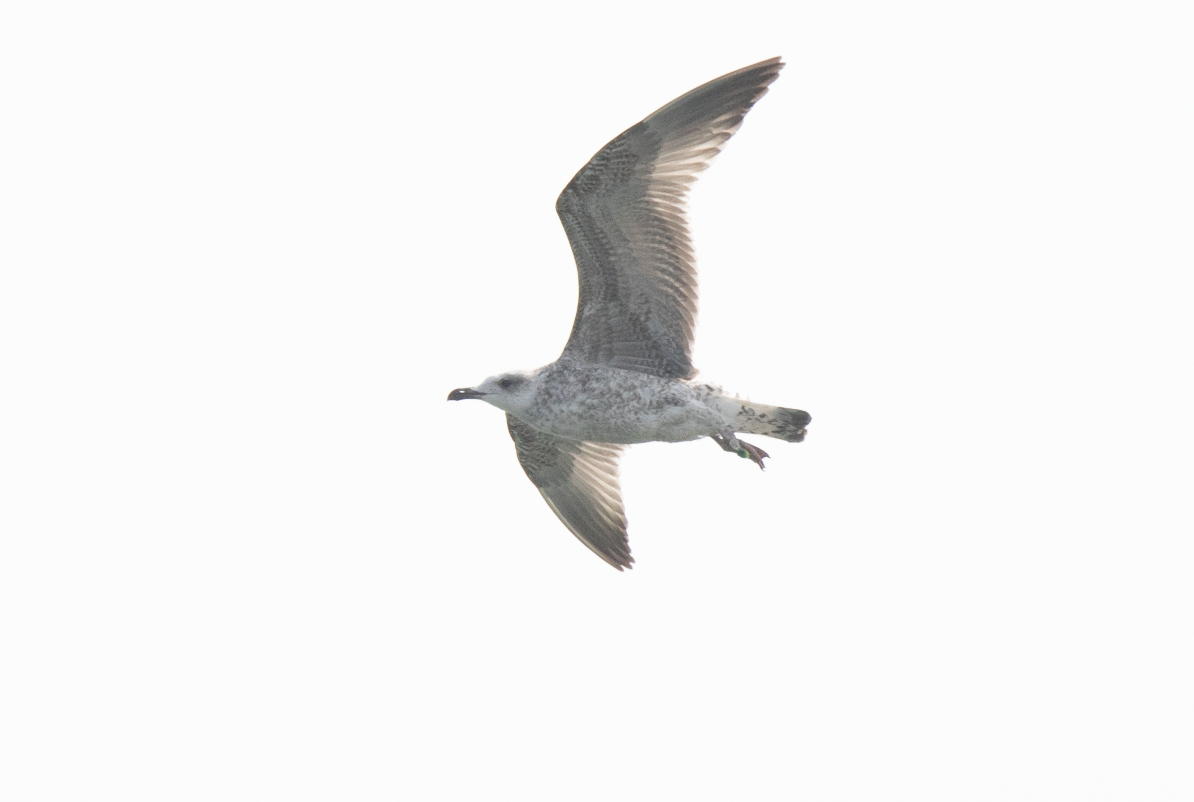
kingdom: Animalia
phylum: Chordata
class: Aves
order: Charadriiformes
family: Laridae
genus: Larus
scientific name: Larus michahellis
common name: Yellow-legged gull
